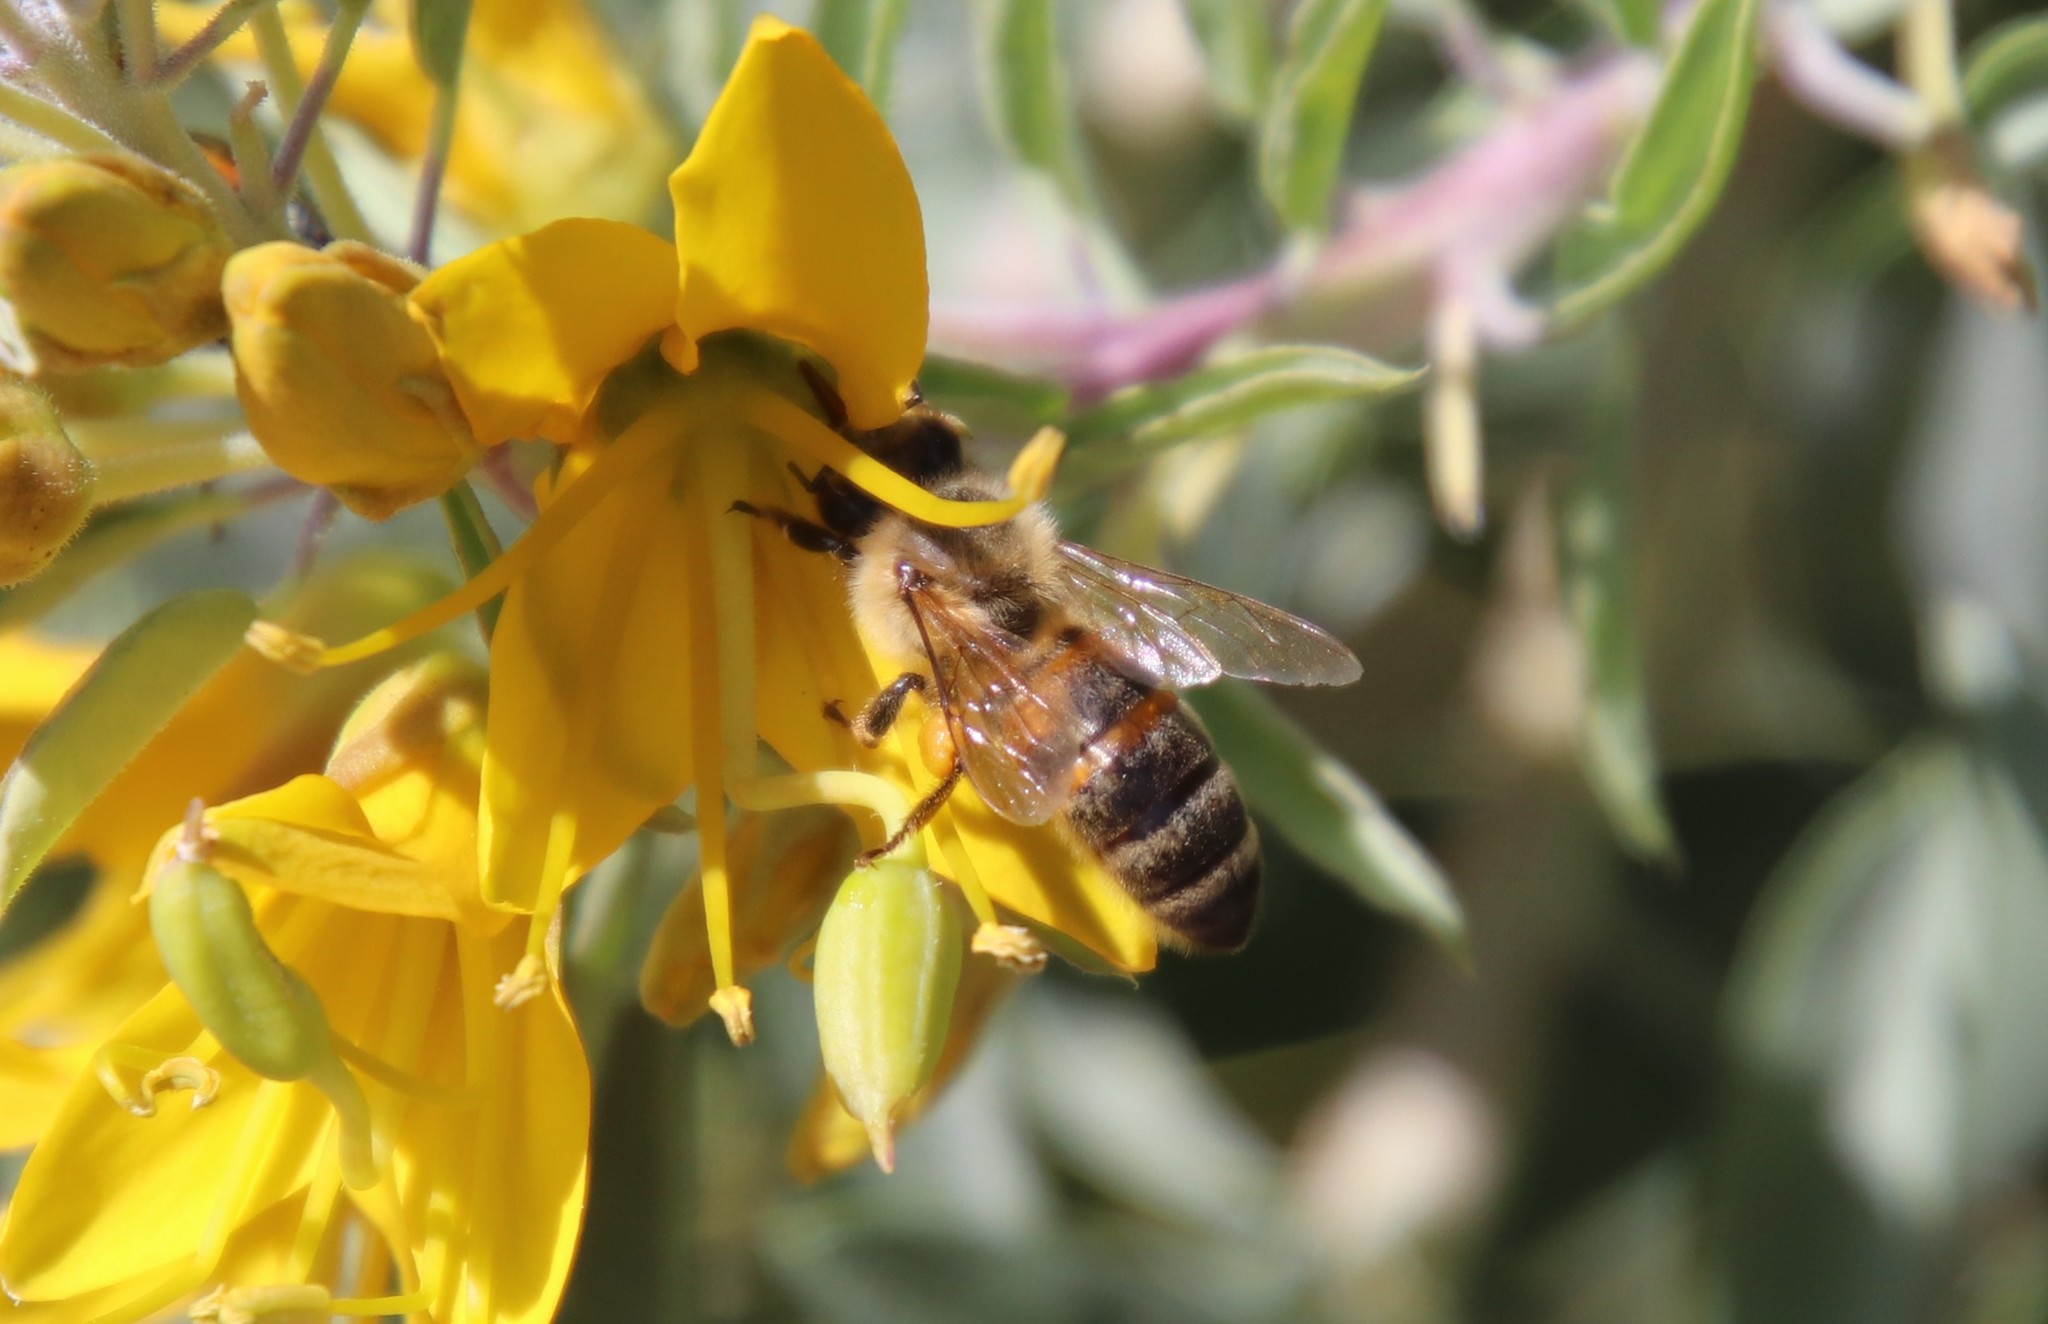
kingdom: Animalia
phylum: Arthropoda
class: Insecta
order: Hymenoptera
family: Apidae
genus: Apis
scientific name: Apis mellifera
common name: Honey bee
